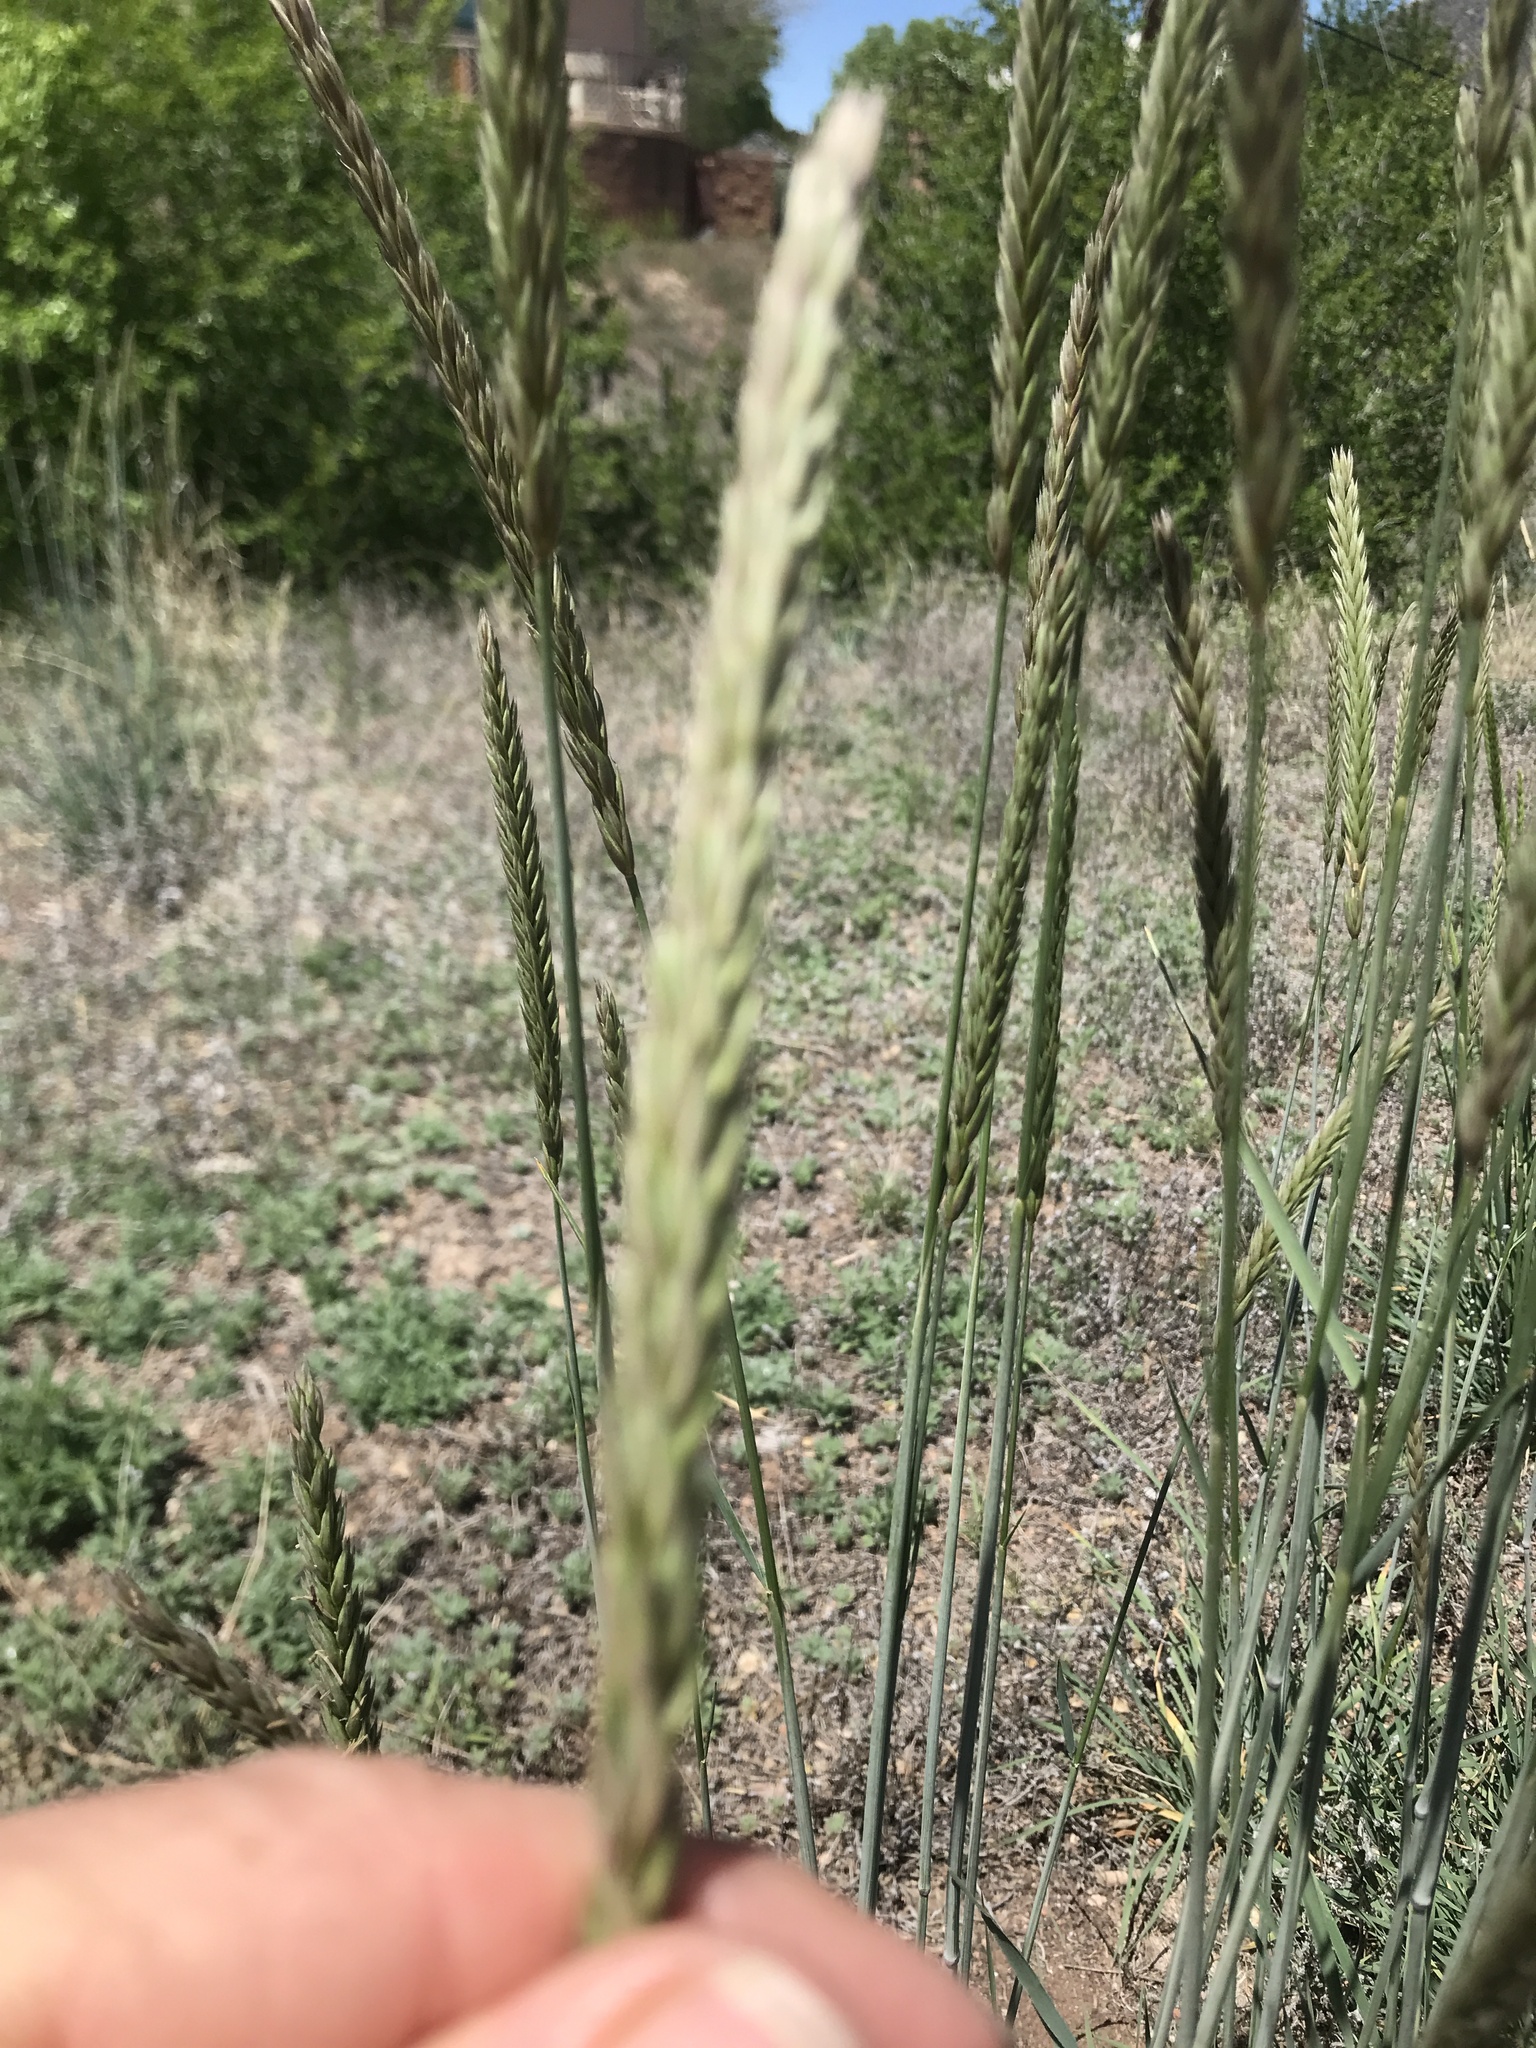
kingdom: Plantae
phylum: Tracheophyta
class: Liliopsida
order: Poales
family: Poaceae
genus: Psathyrostachys
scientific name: Psathyrostachys juncea
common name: Russian wildrye
